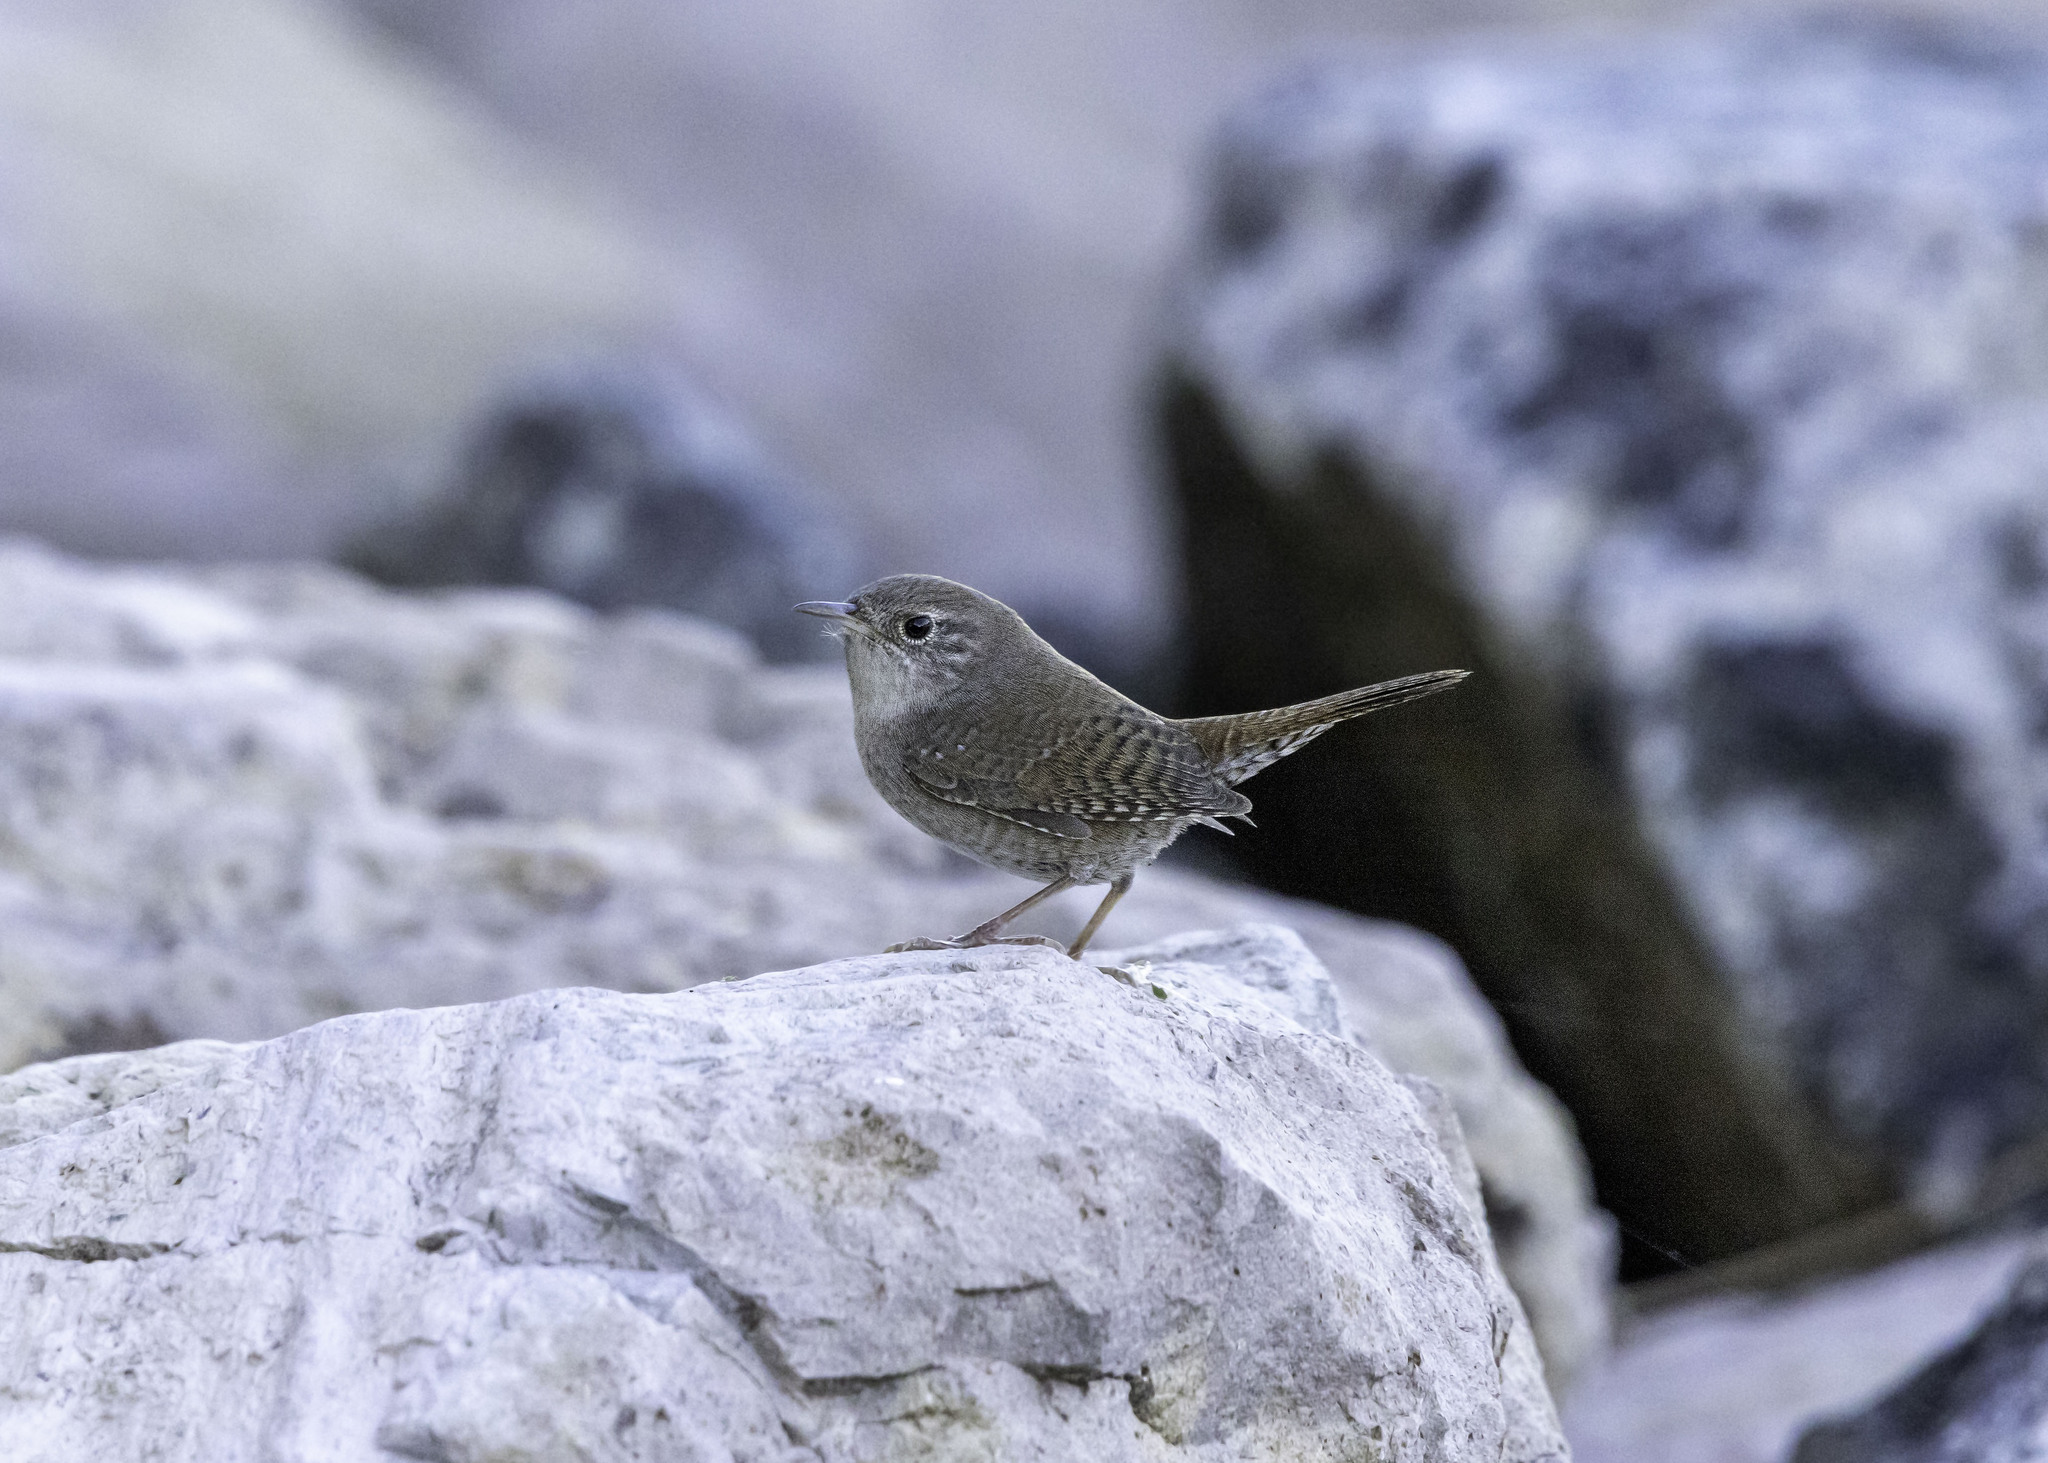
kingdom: Animalia
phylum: Chordata
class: Aves
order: Passeriformes
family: Troglodytidae
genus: Salpinctes
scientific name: Salpinctes obsoletus
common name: Rock wren
